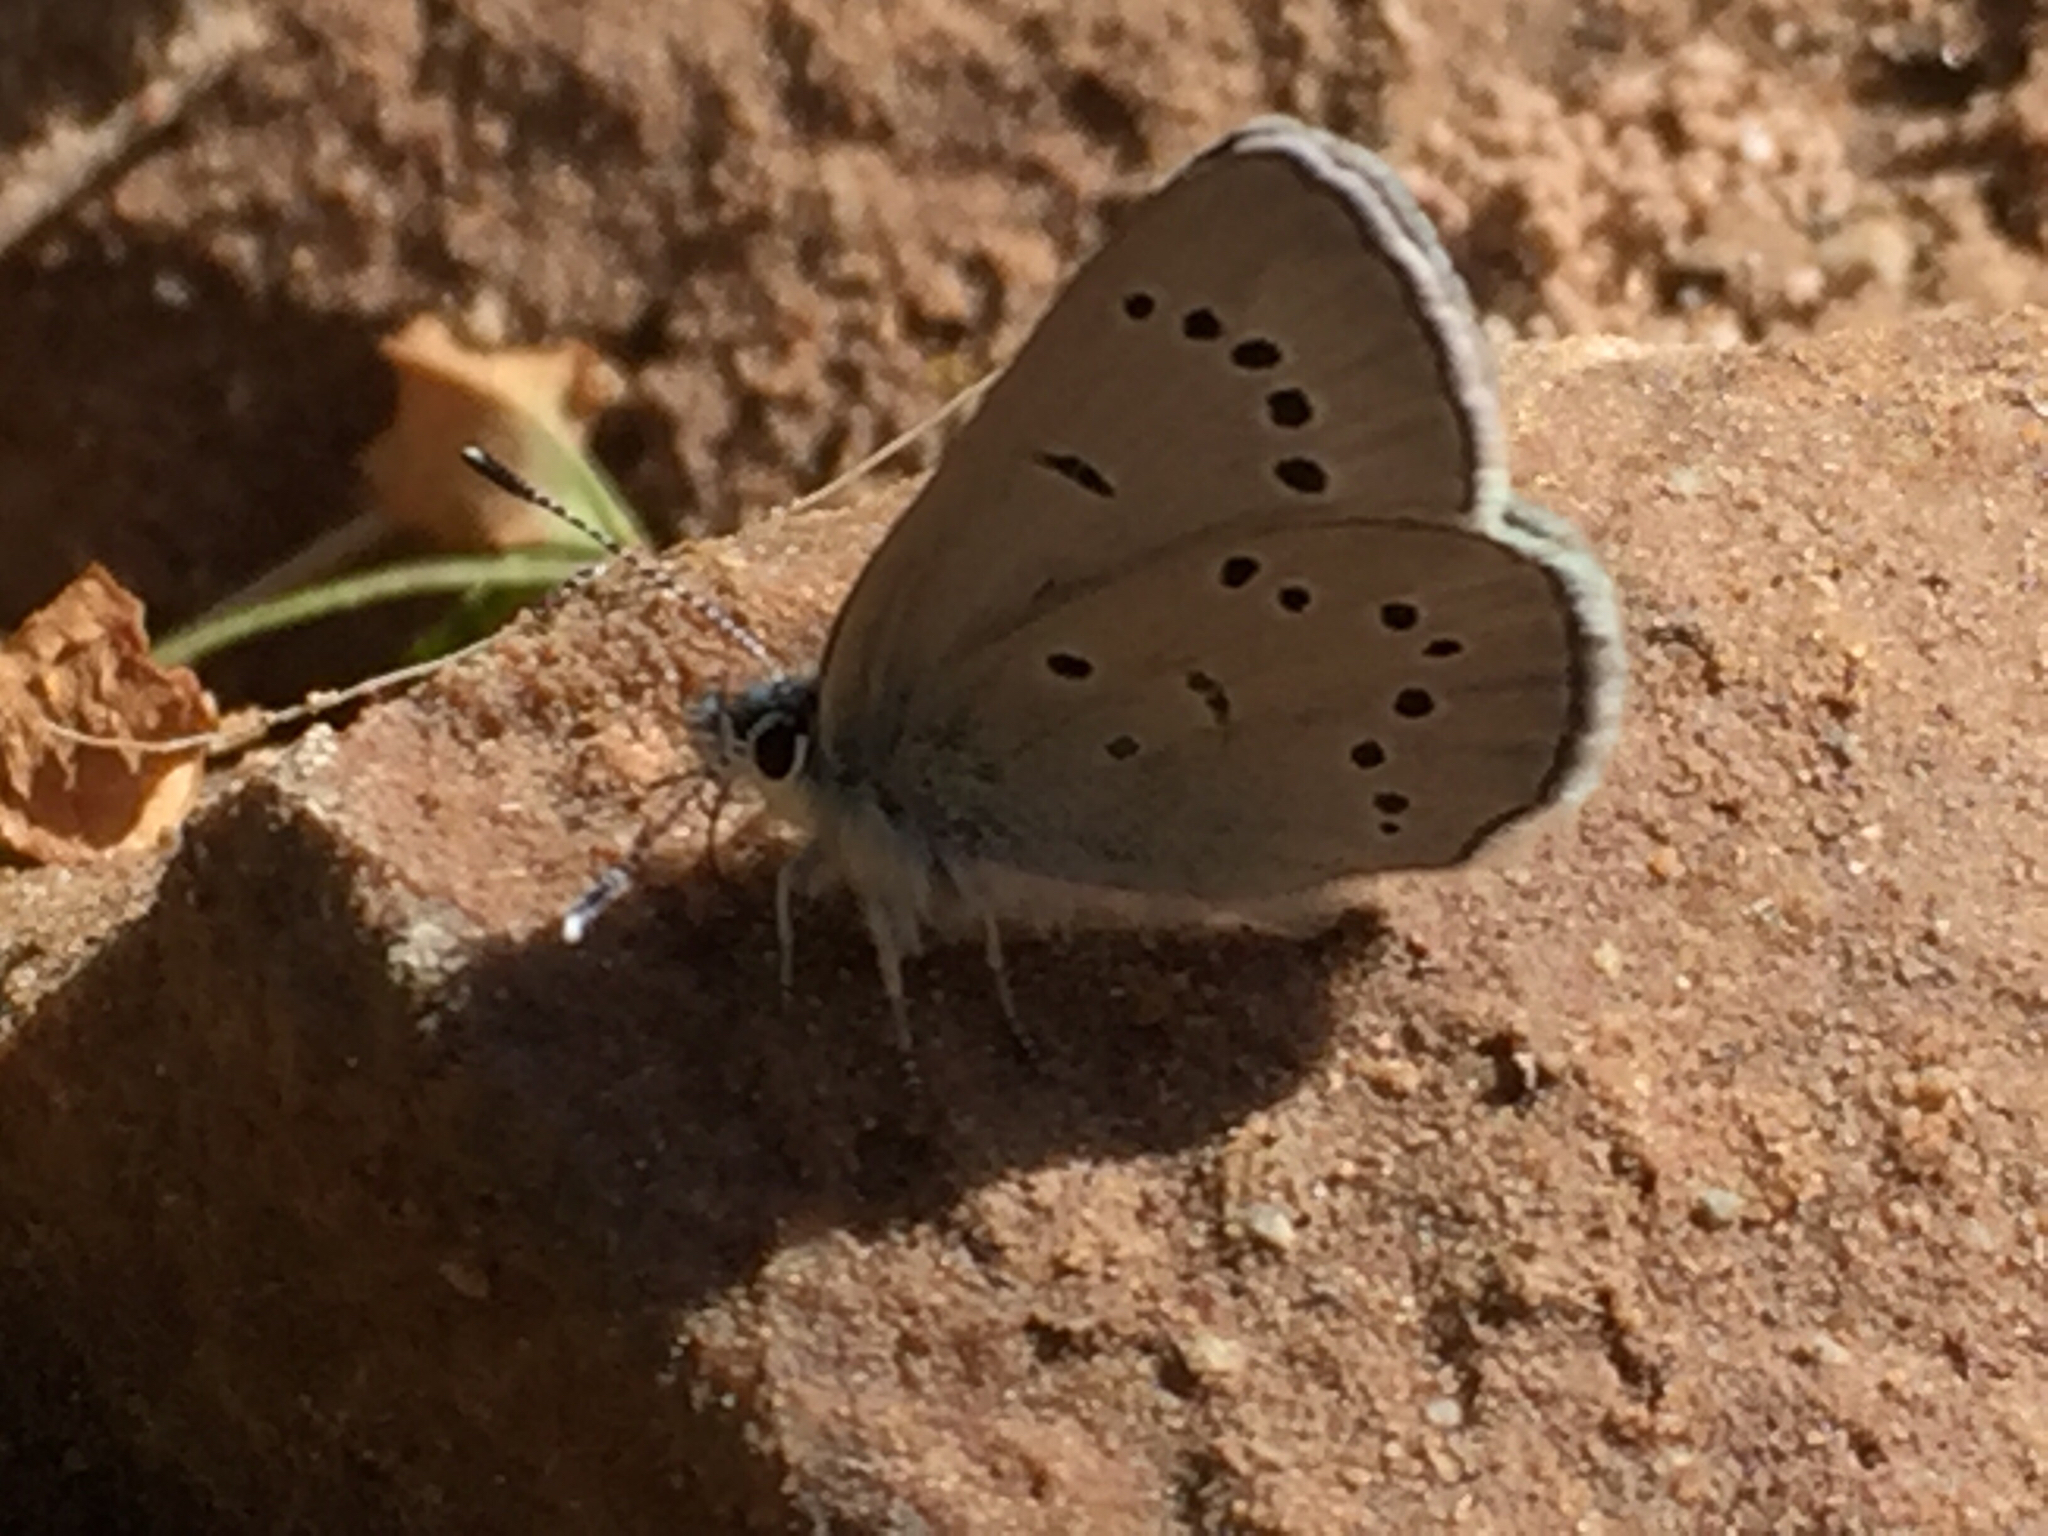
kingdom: Animalia
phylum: Arthropoda
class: Insecta
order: Lepidoptera
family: Lycaenidae
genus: Glaucopsyche
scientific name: Glaucopsyche lygdamus
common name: Silvery blue
